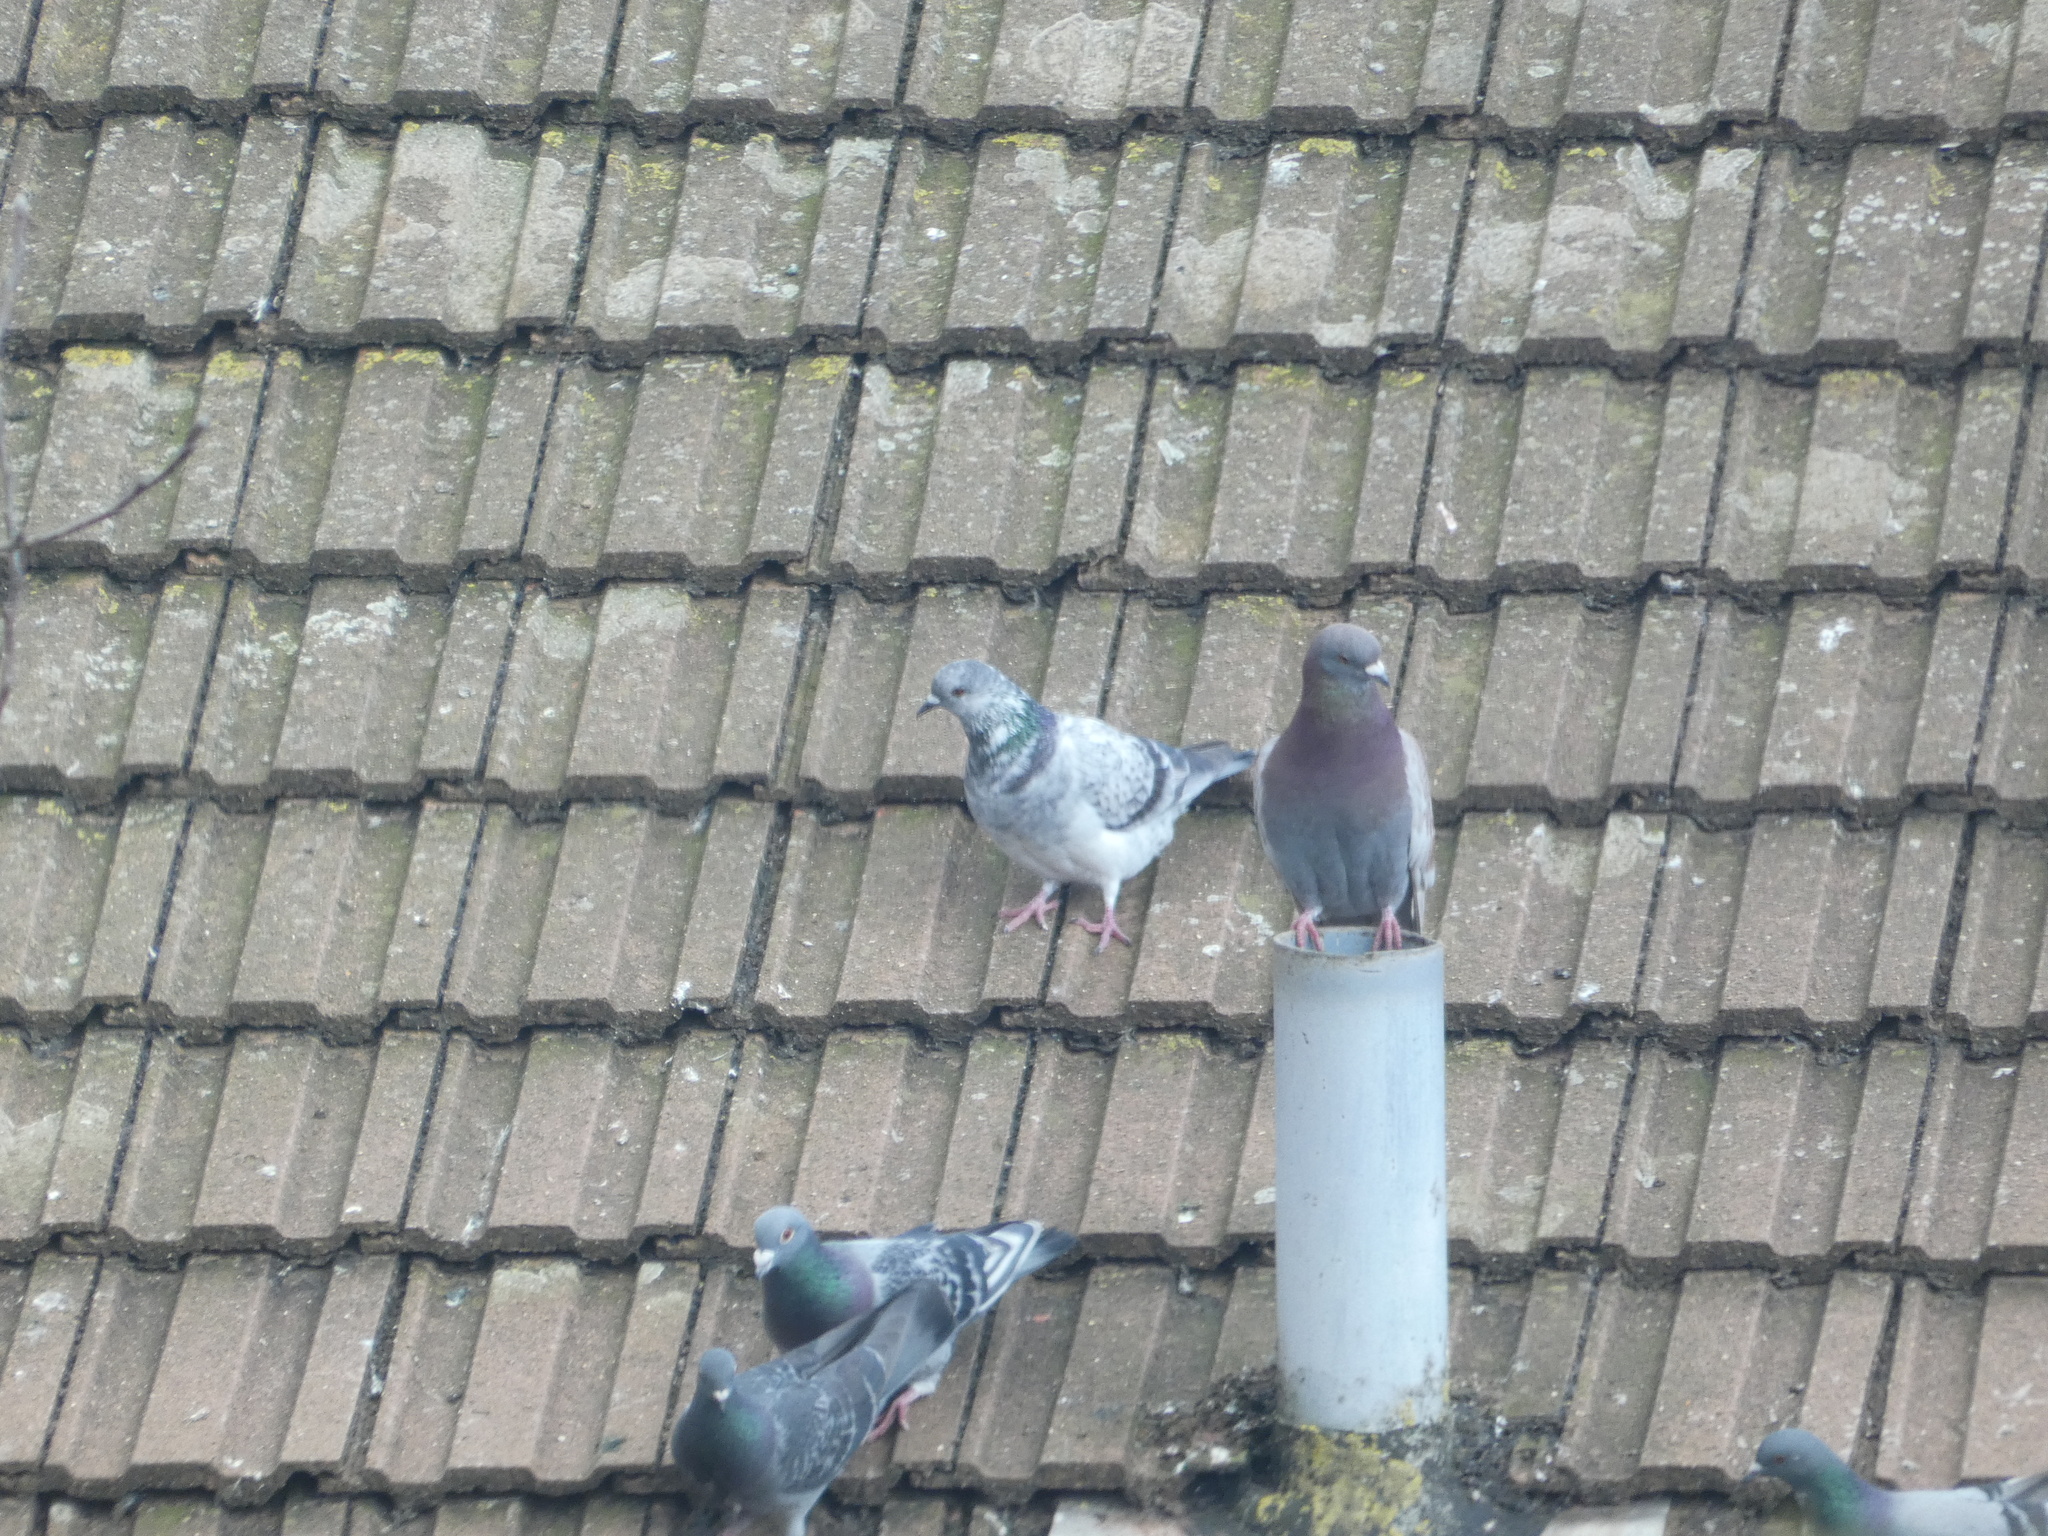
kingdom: Animalia
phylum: Chordata
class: Aves
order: Columbiformes
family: Columbidae
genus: Columba
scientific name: Columba livia
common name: Rock pigeon
